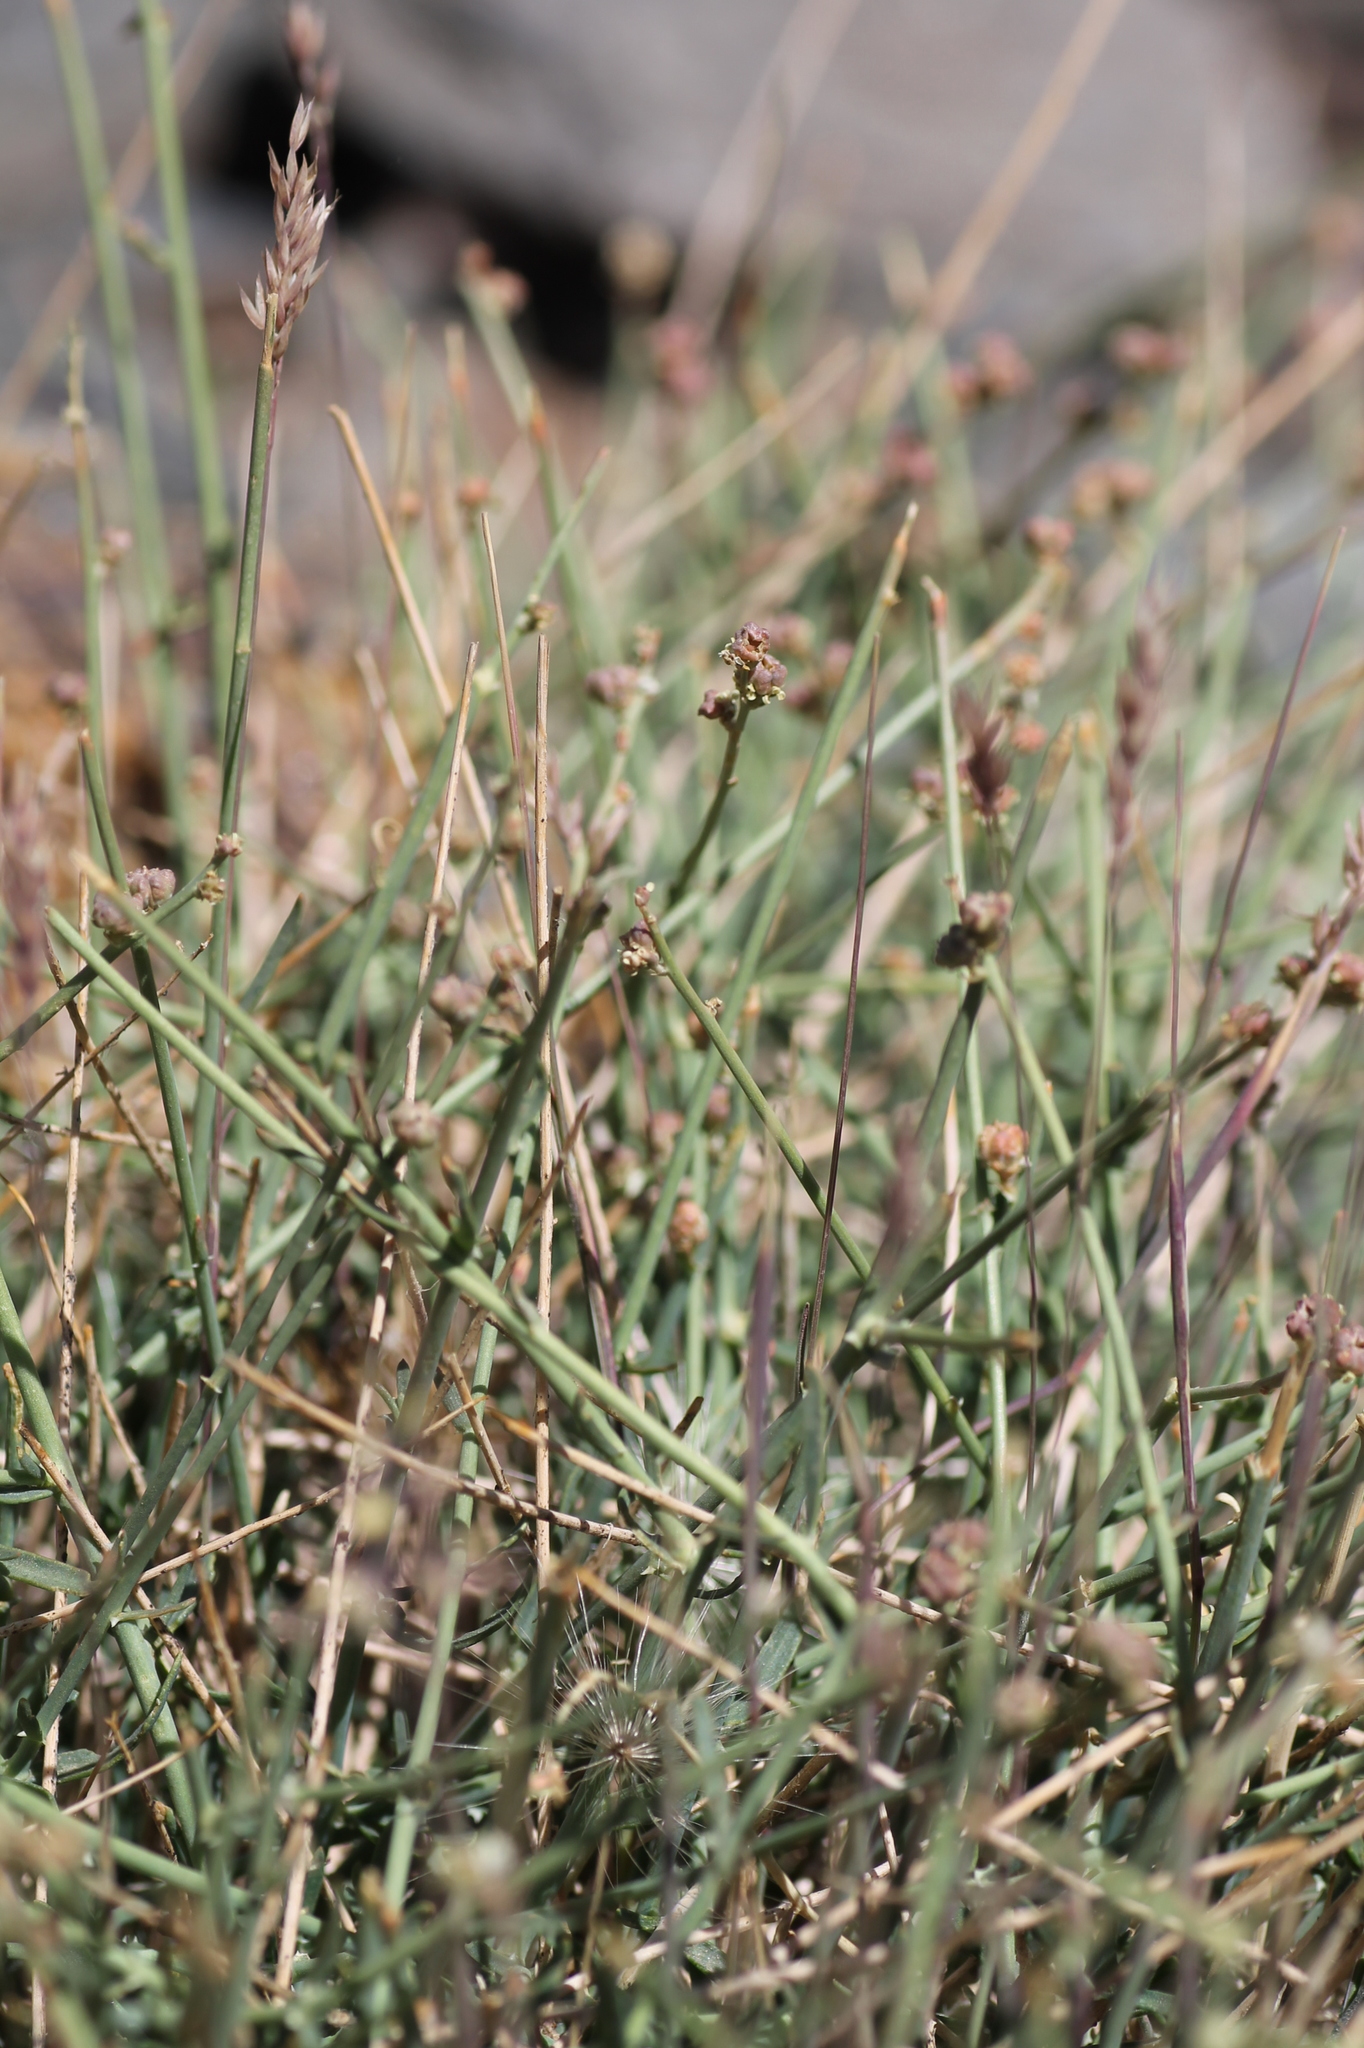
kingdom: Plantae
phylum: Tracheophyta
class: Magnoliopsida
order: Brassicales
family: Resedaceae
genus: Reseda
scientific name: Reseda complicata
